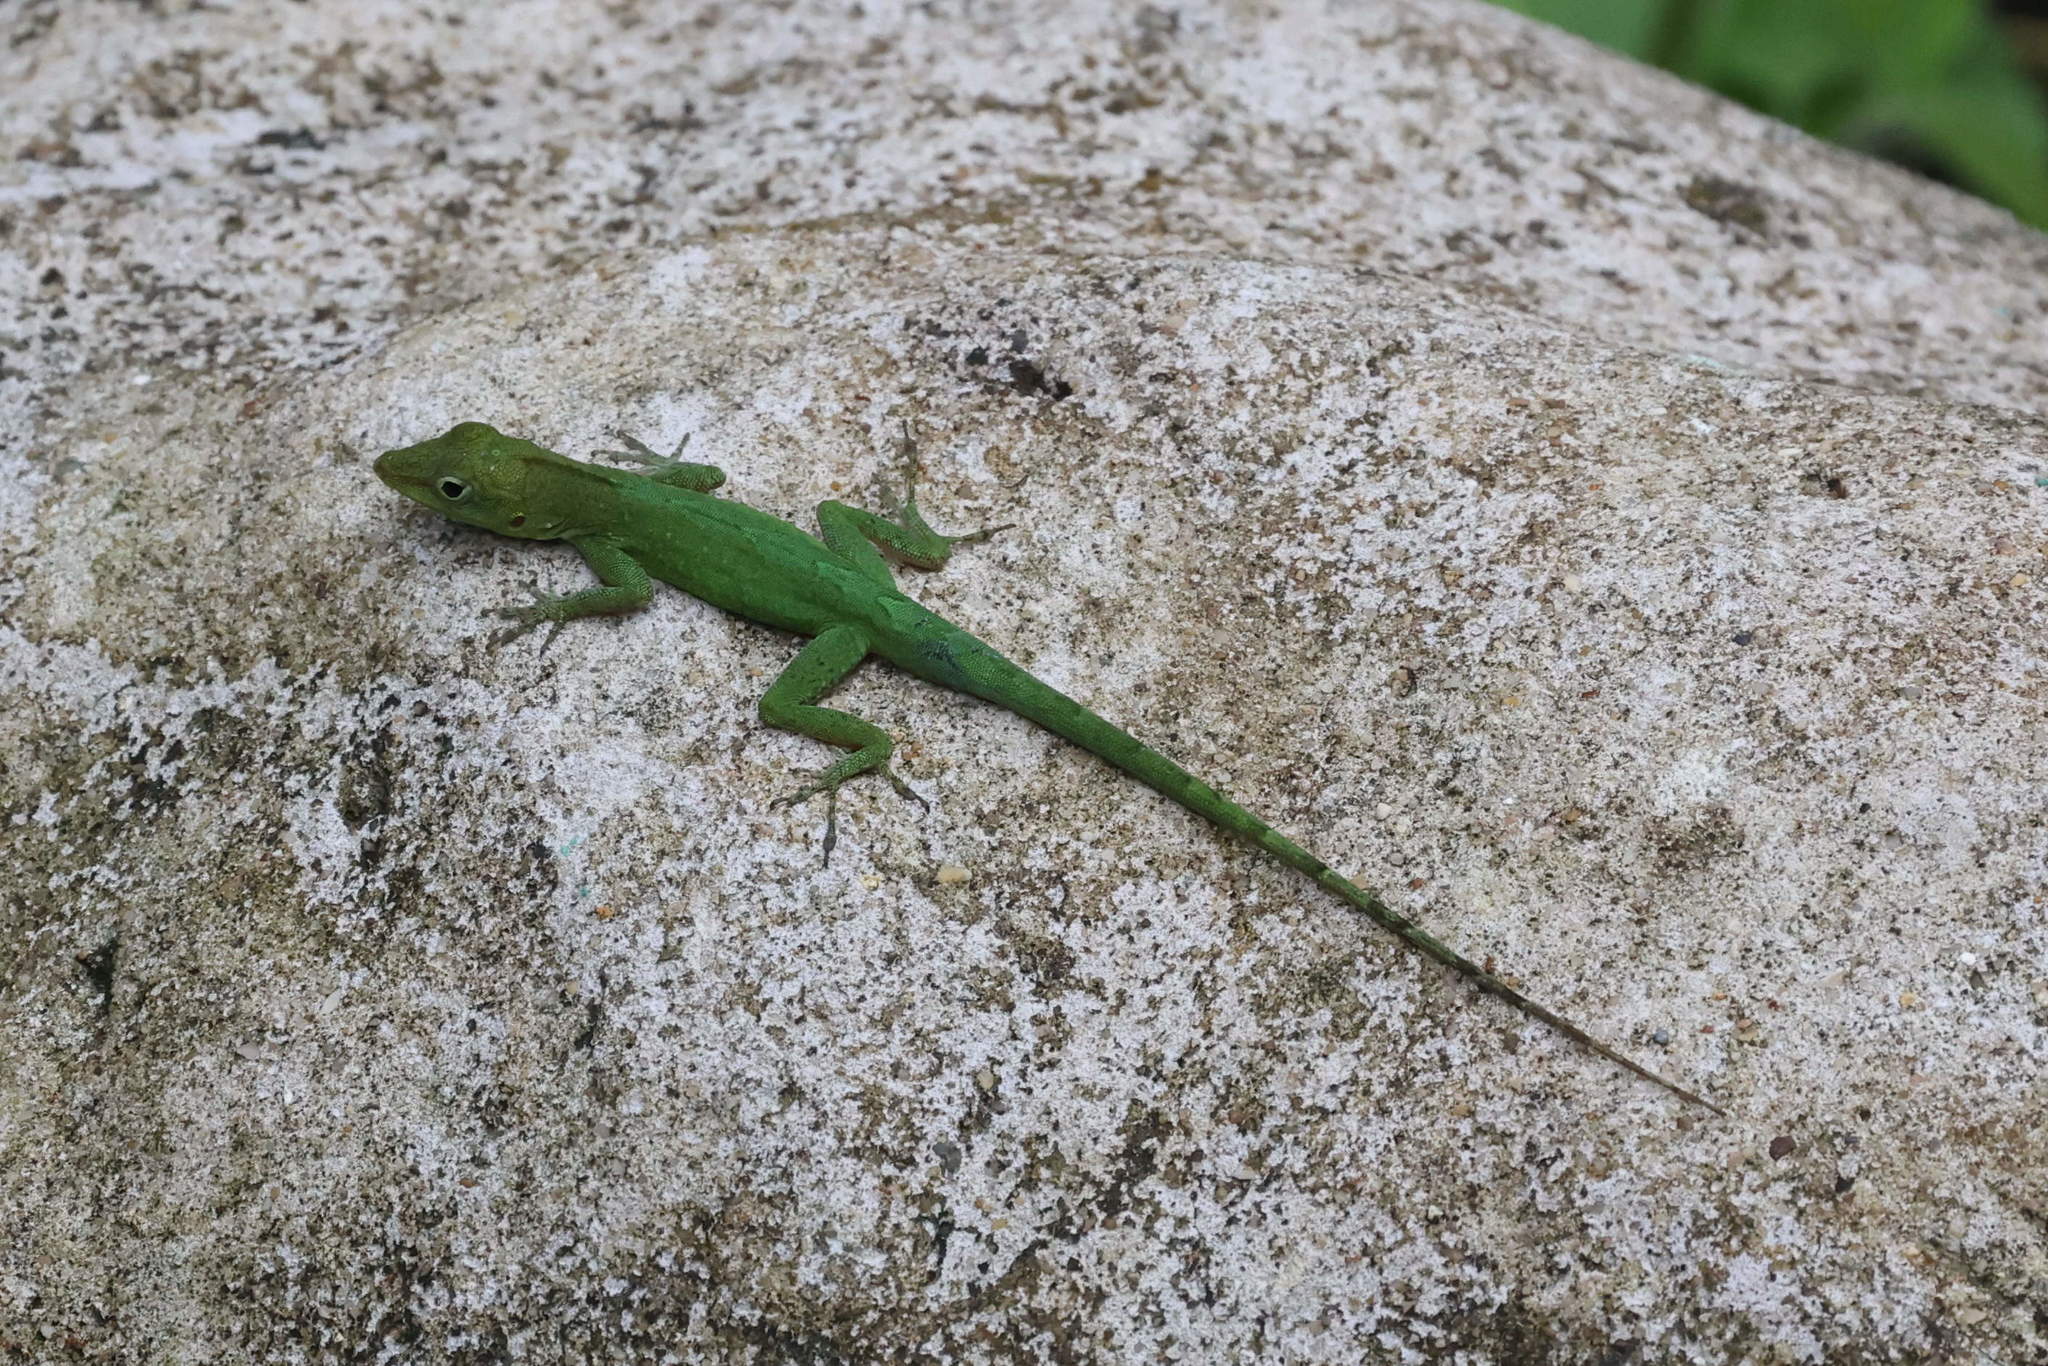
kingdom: Animalia
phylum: Chordata
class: Squamata
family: Dactyloidae
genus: Anolis
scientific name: Anolis marmoratus
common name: Guadeloupe anole
